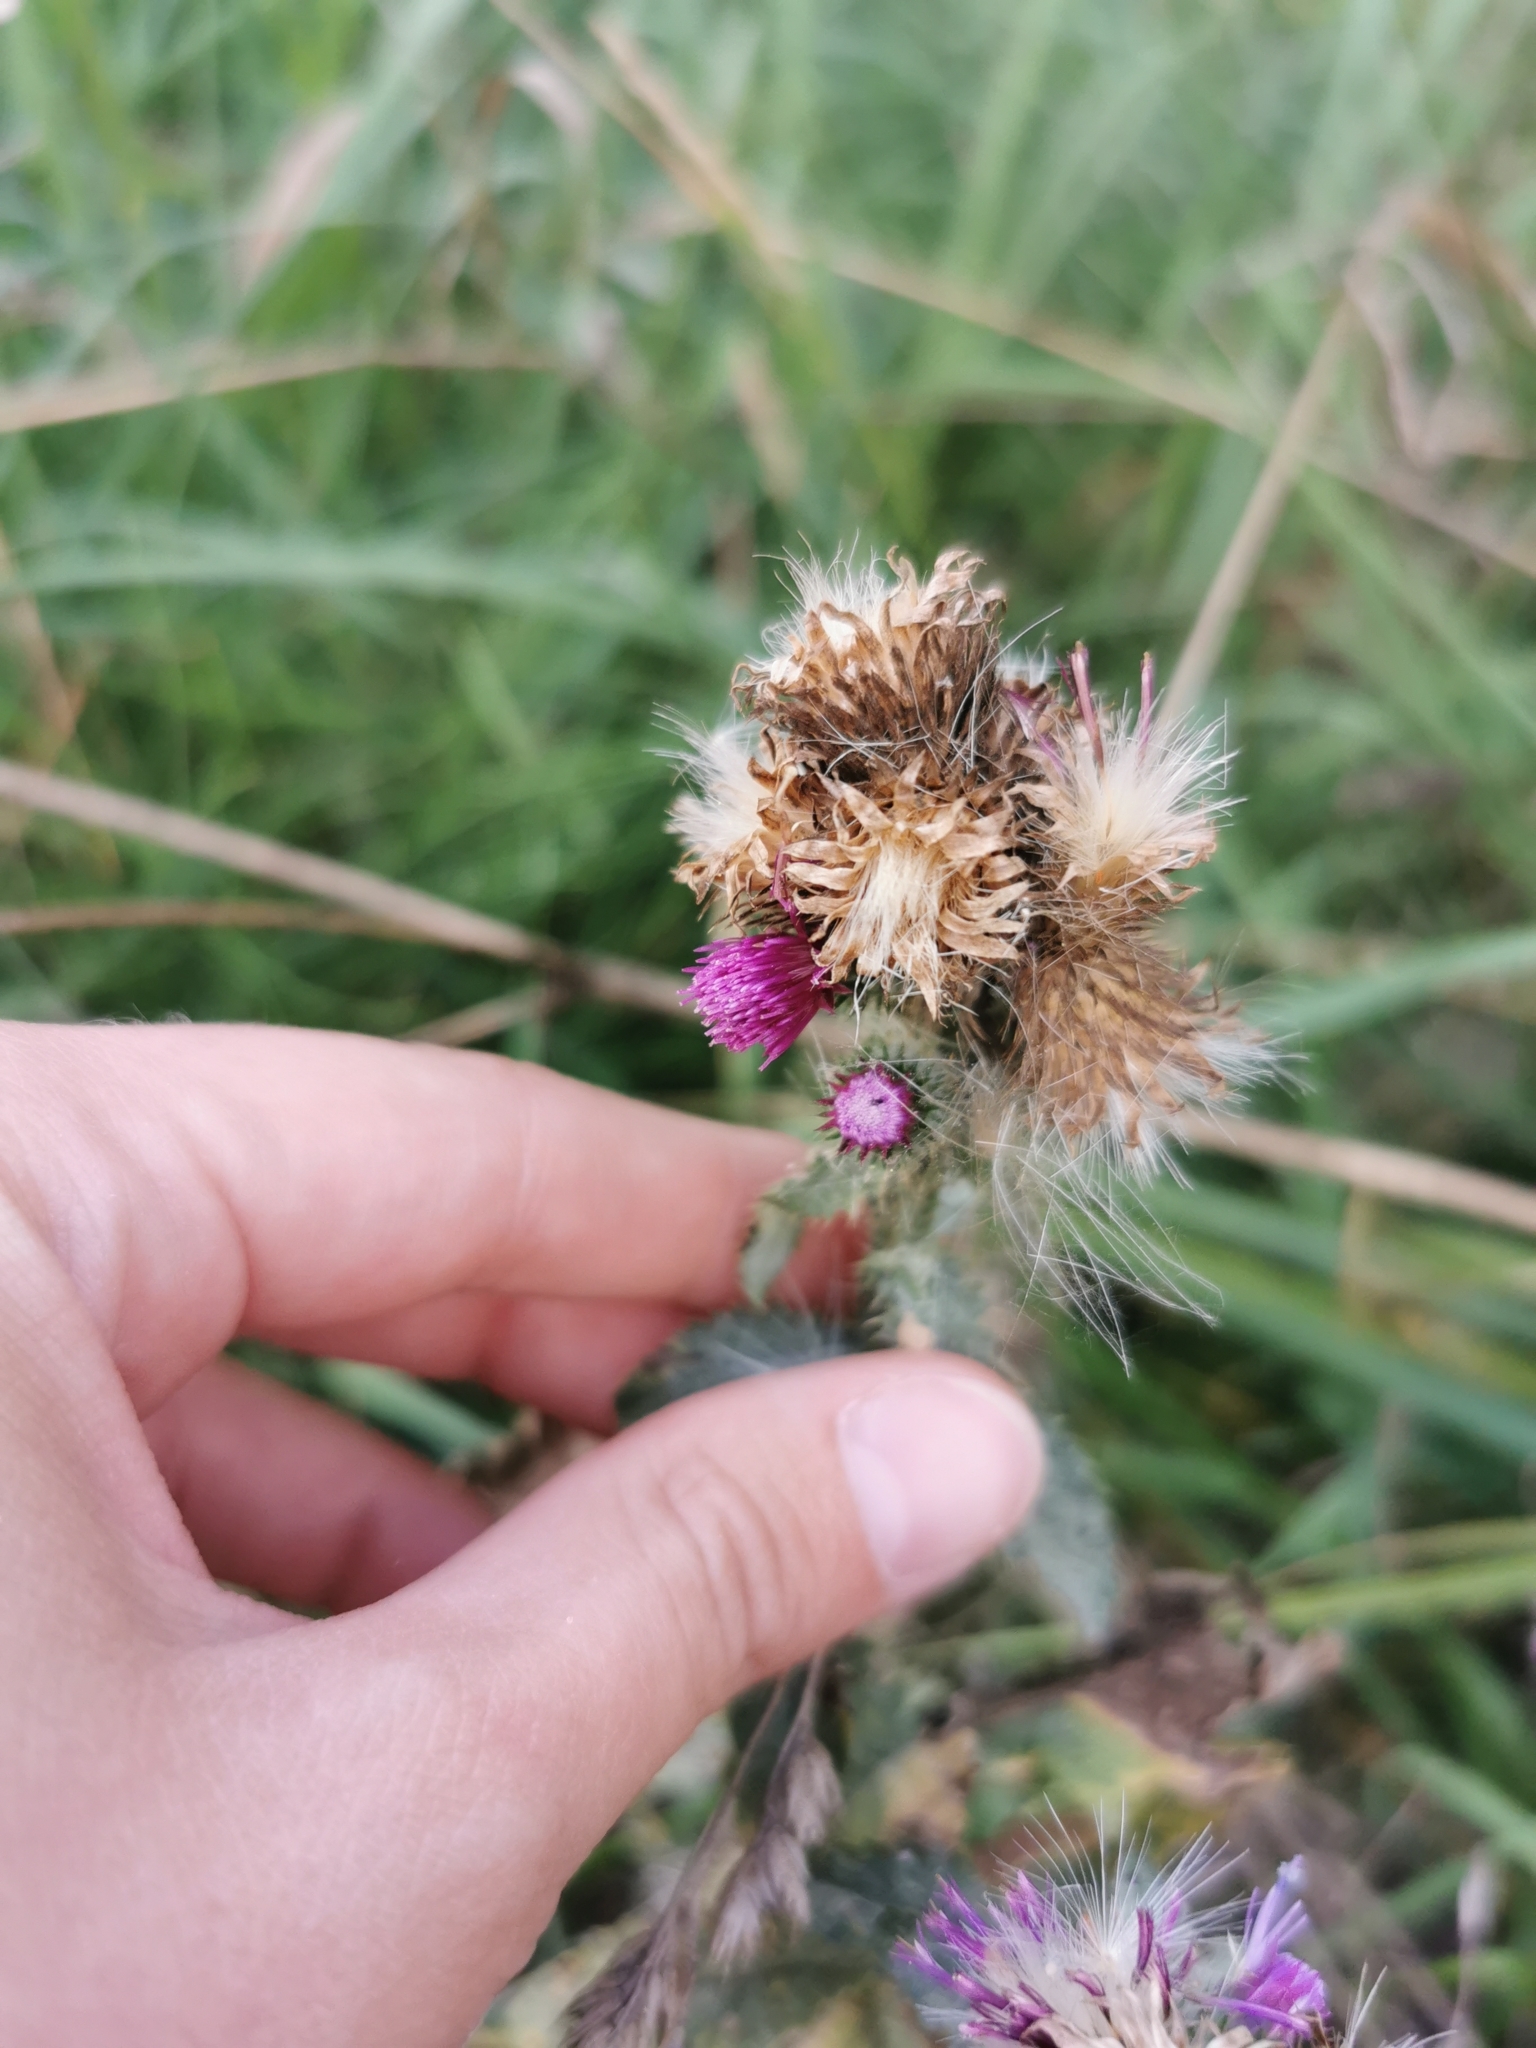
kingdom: Plantae
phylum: Tracheophyta
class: Magnoliopsida
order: Asterales
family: Asteraceae
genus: Carduus
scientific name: Carduus crispus
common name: Welted thistle
